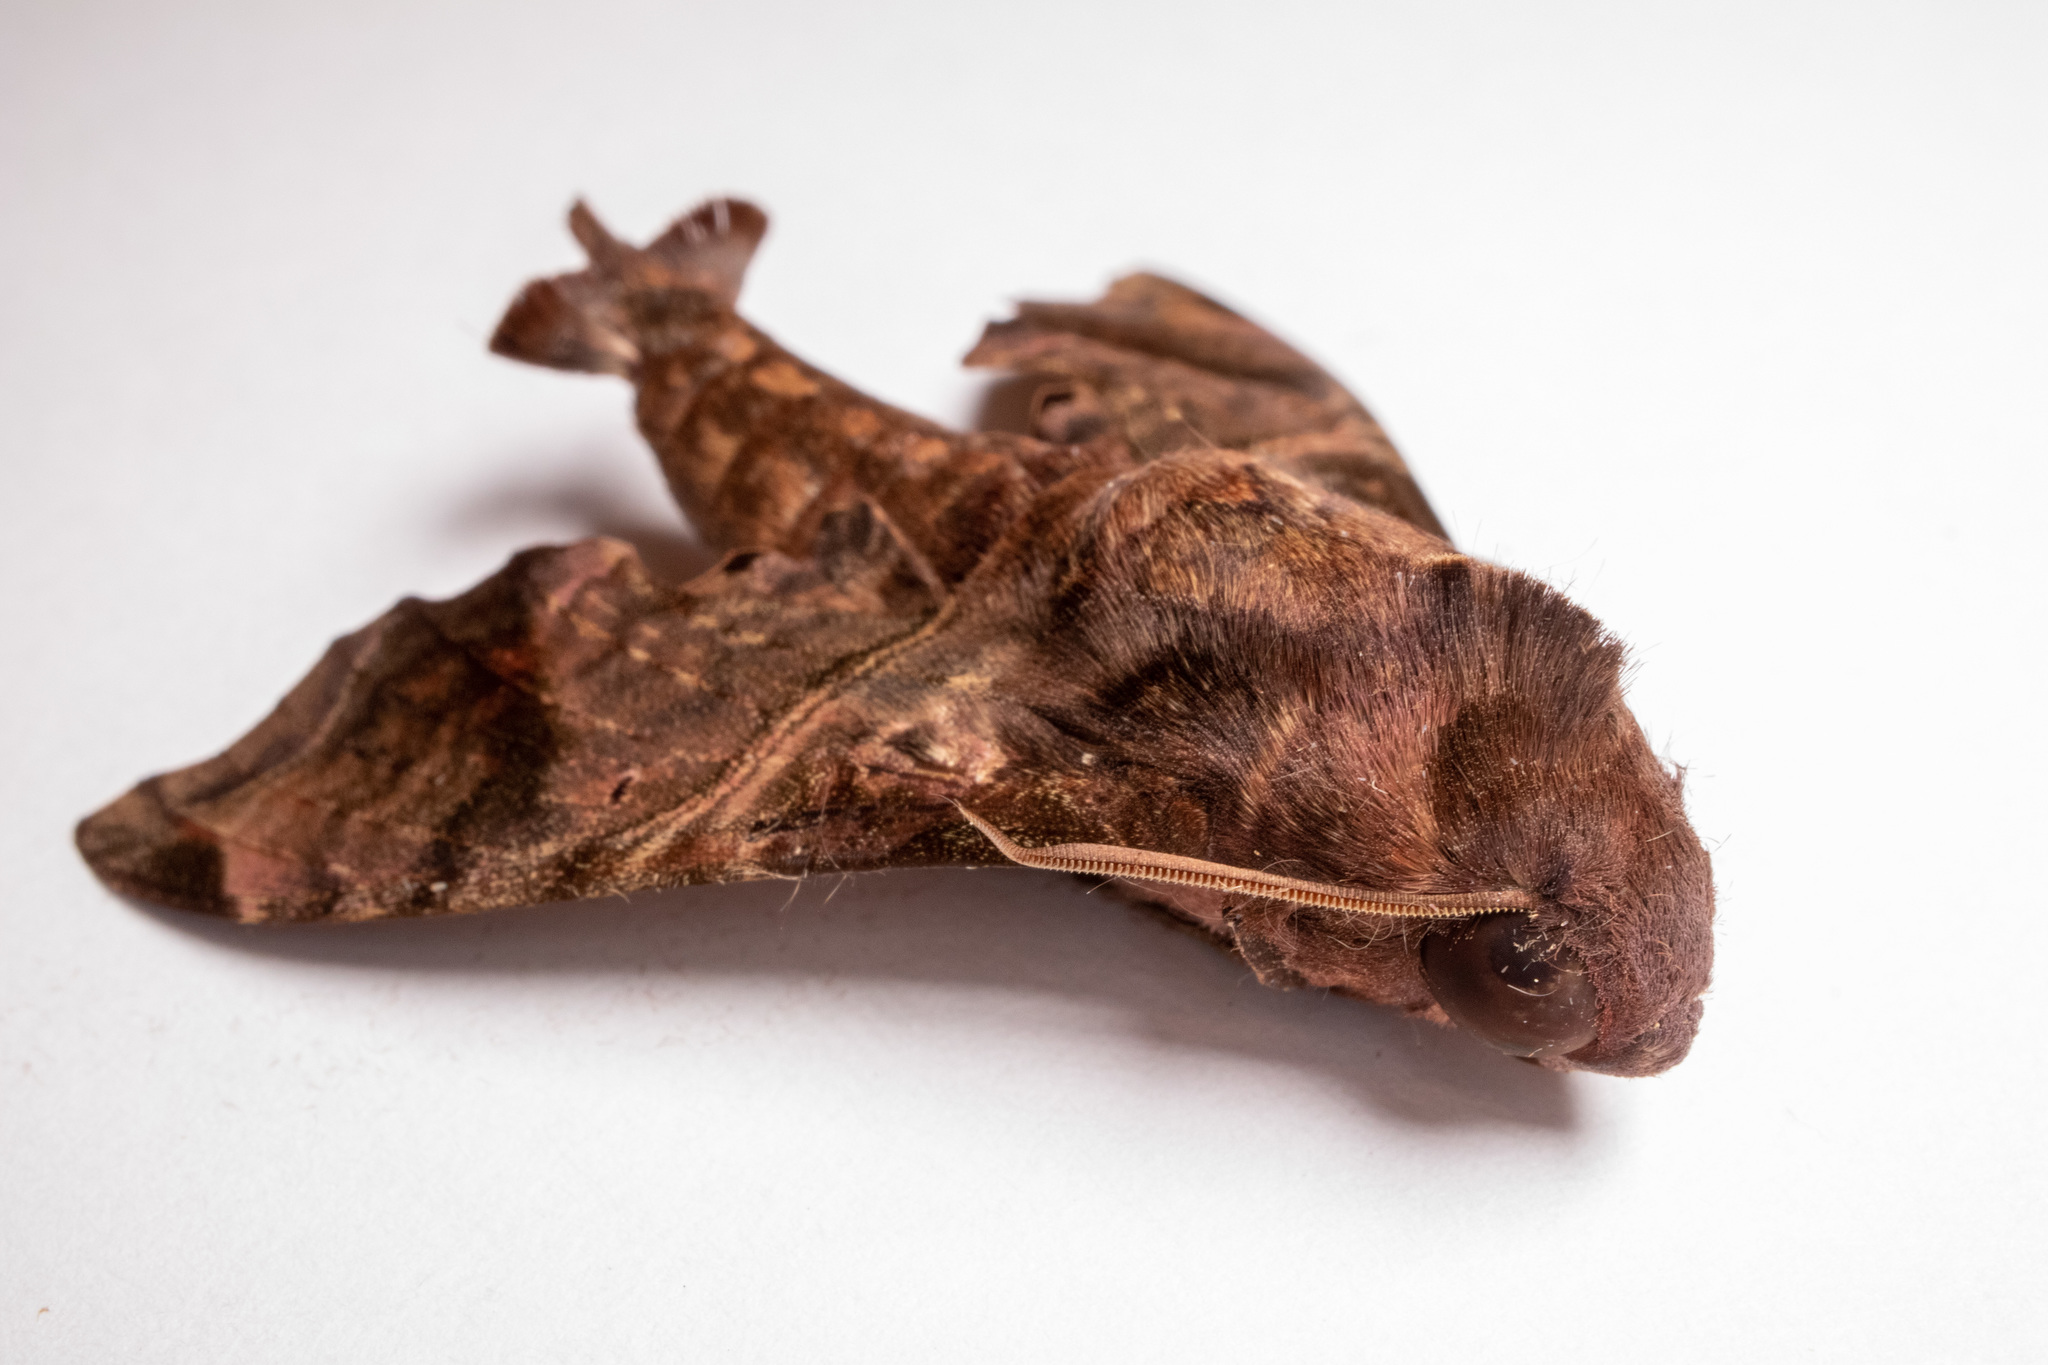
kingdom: Animalia
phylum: Arthropoda
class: Insecta
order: Lepidoptera
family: Sphingidae
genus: Enyo
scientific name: Enyo lugubris
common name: Mournful sphinx
